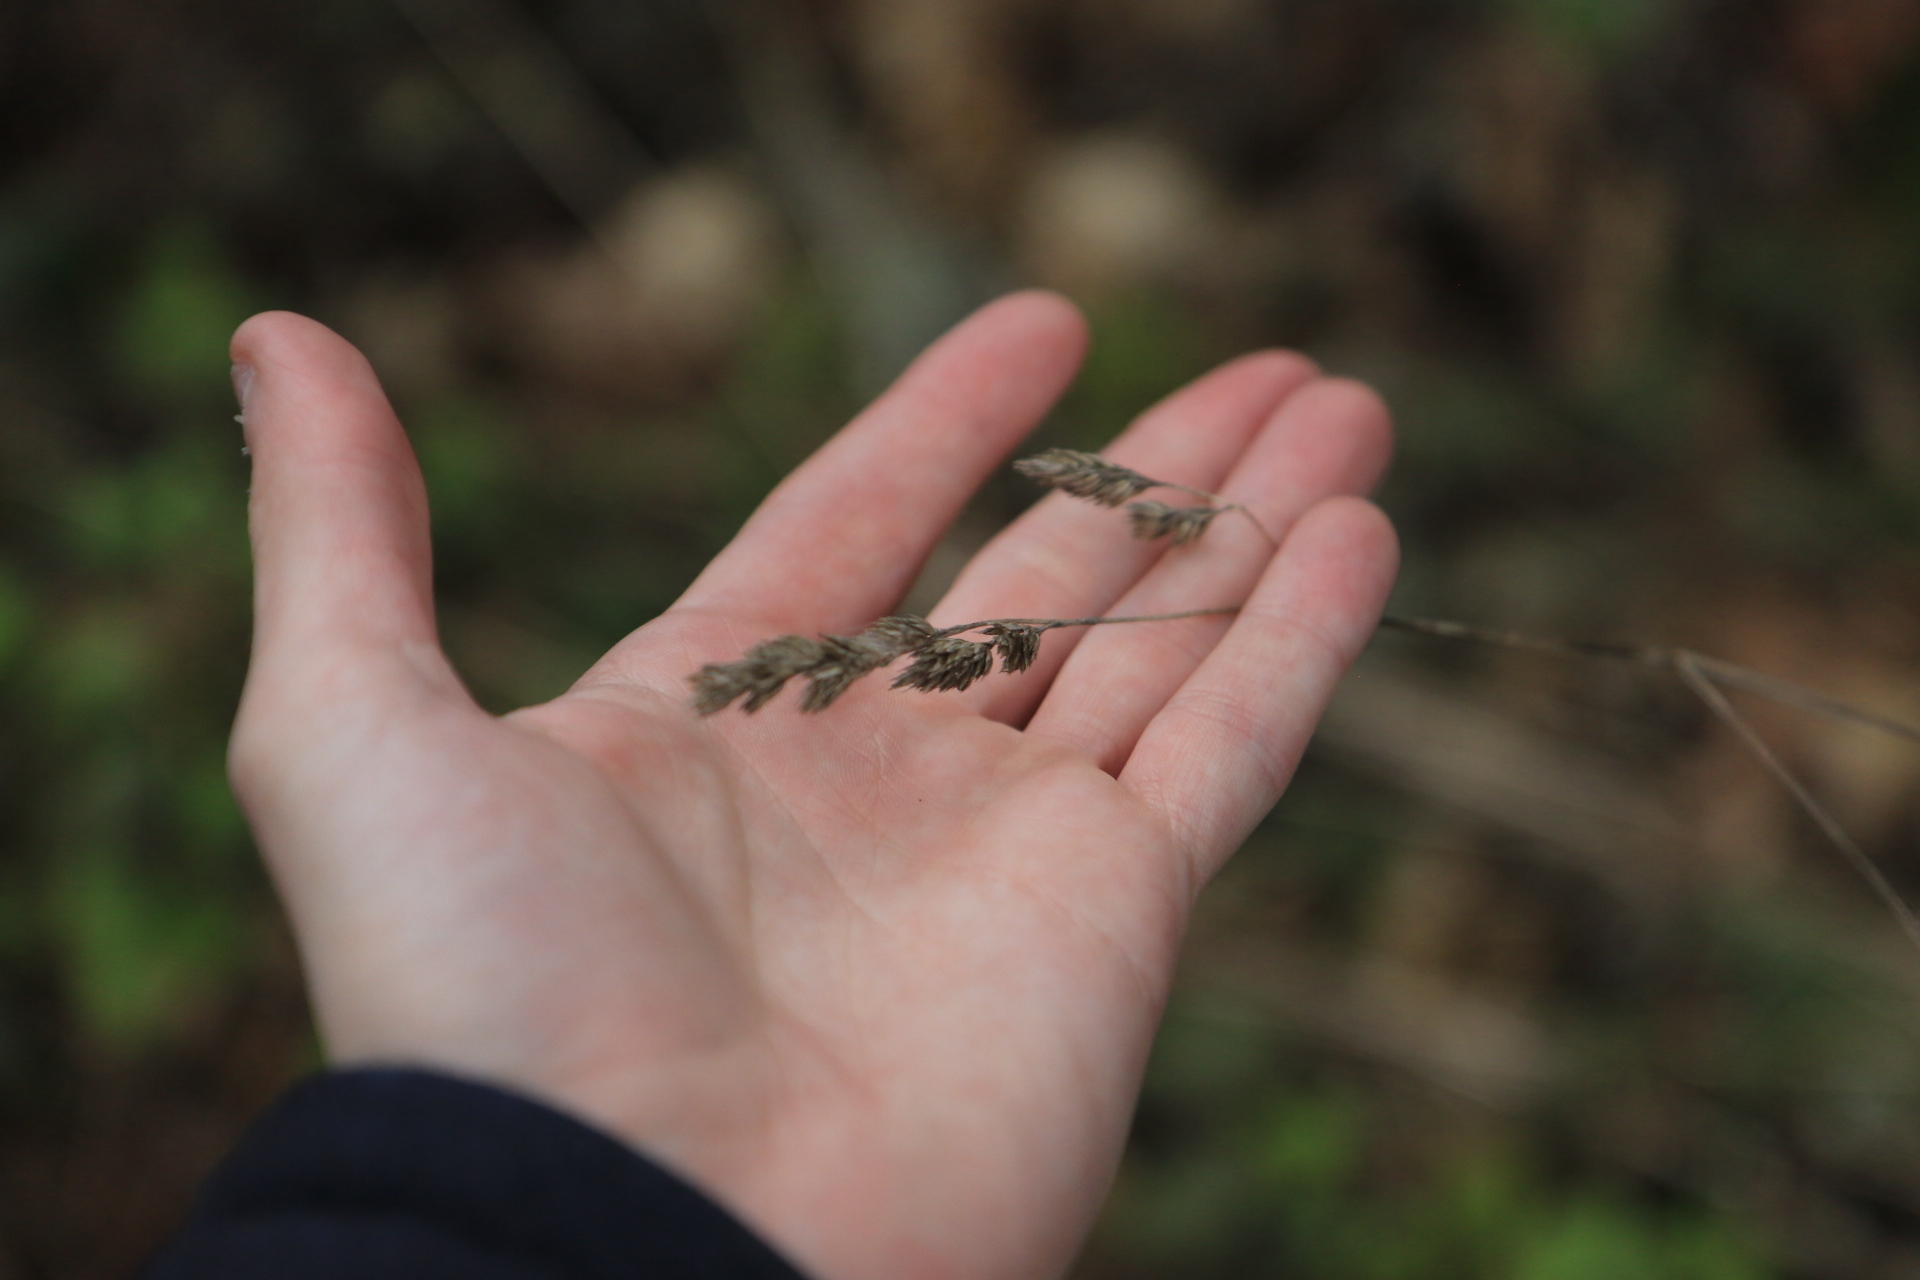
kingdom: Plantae
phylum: Tracheophyta
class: Liliopsida
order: Poales
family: Poaceae
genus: Dactylis
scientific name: Dactylis glomerata
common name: Orchardgrass
